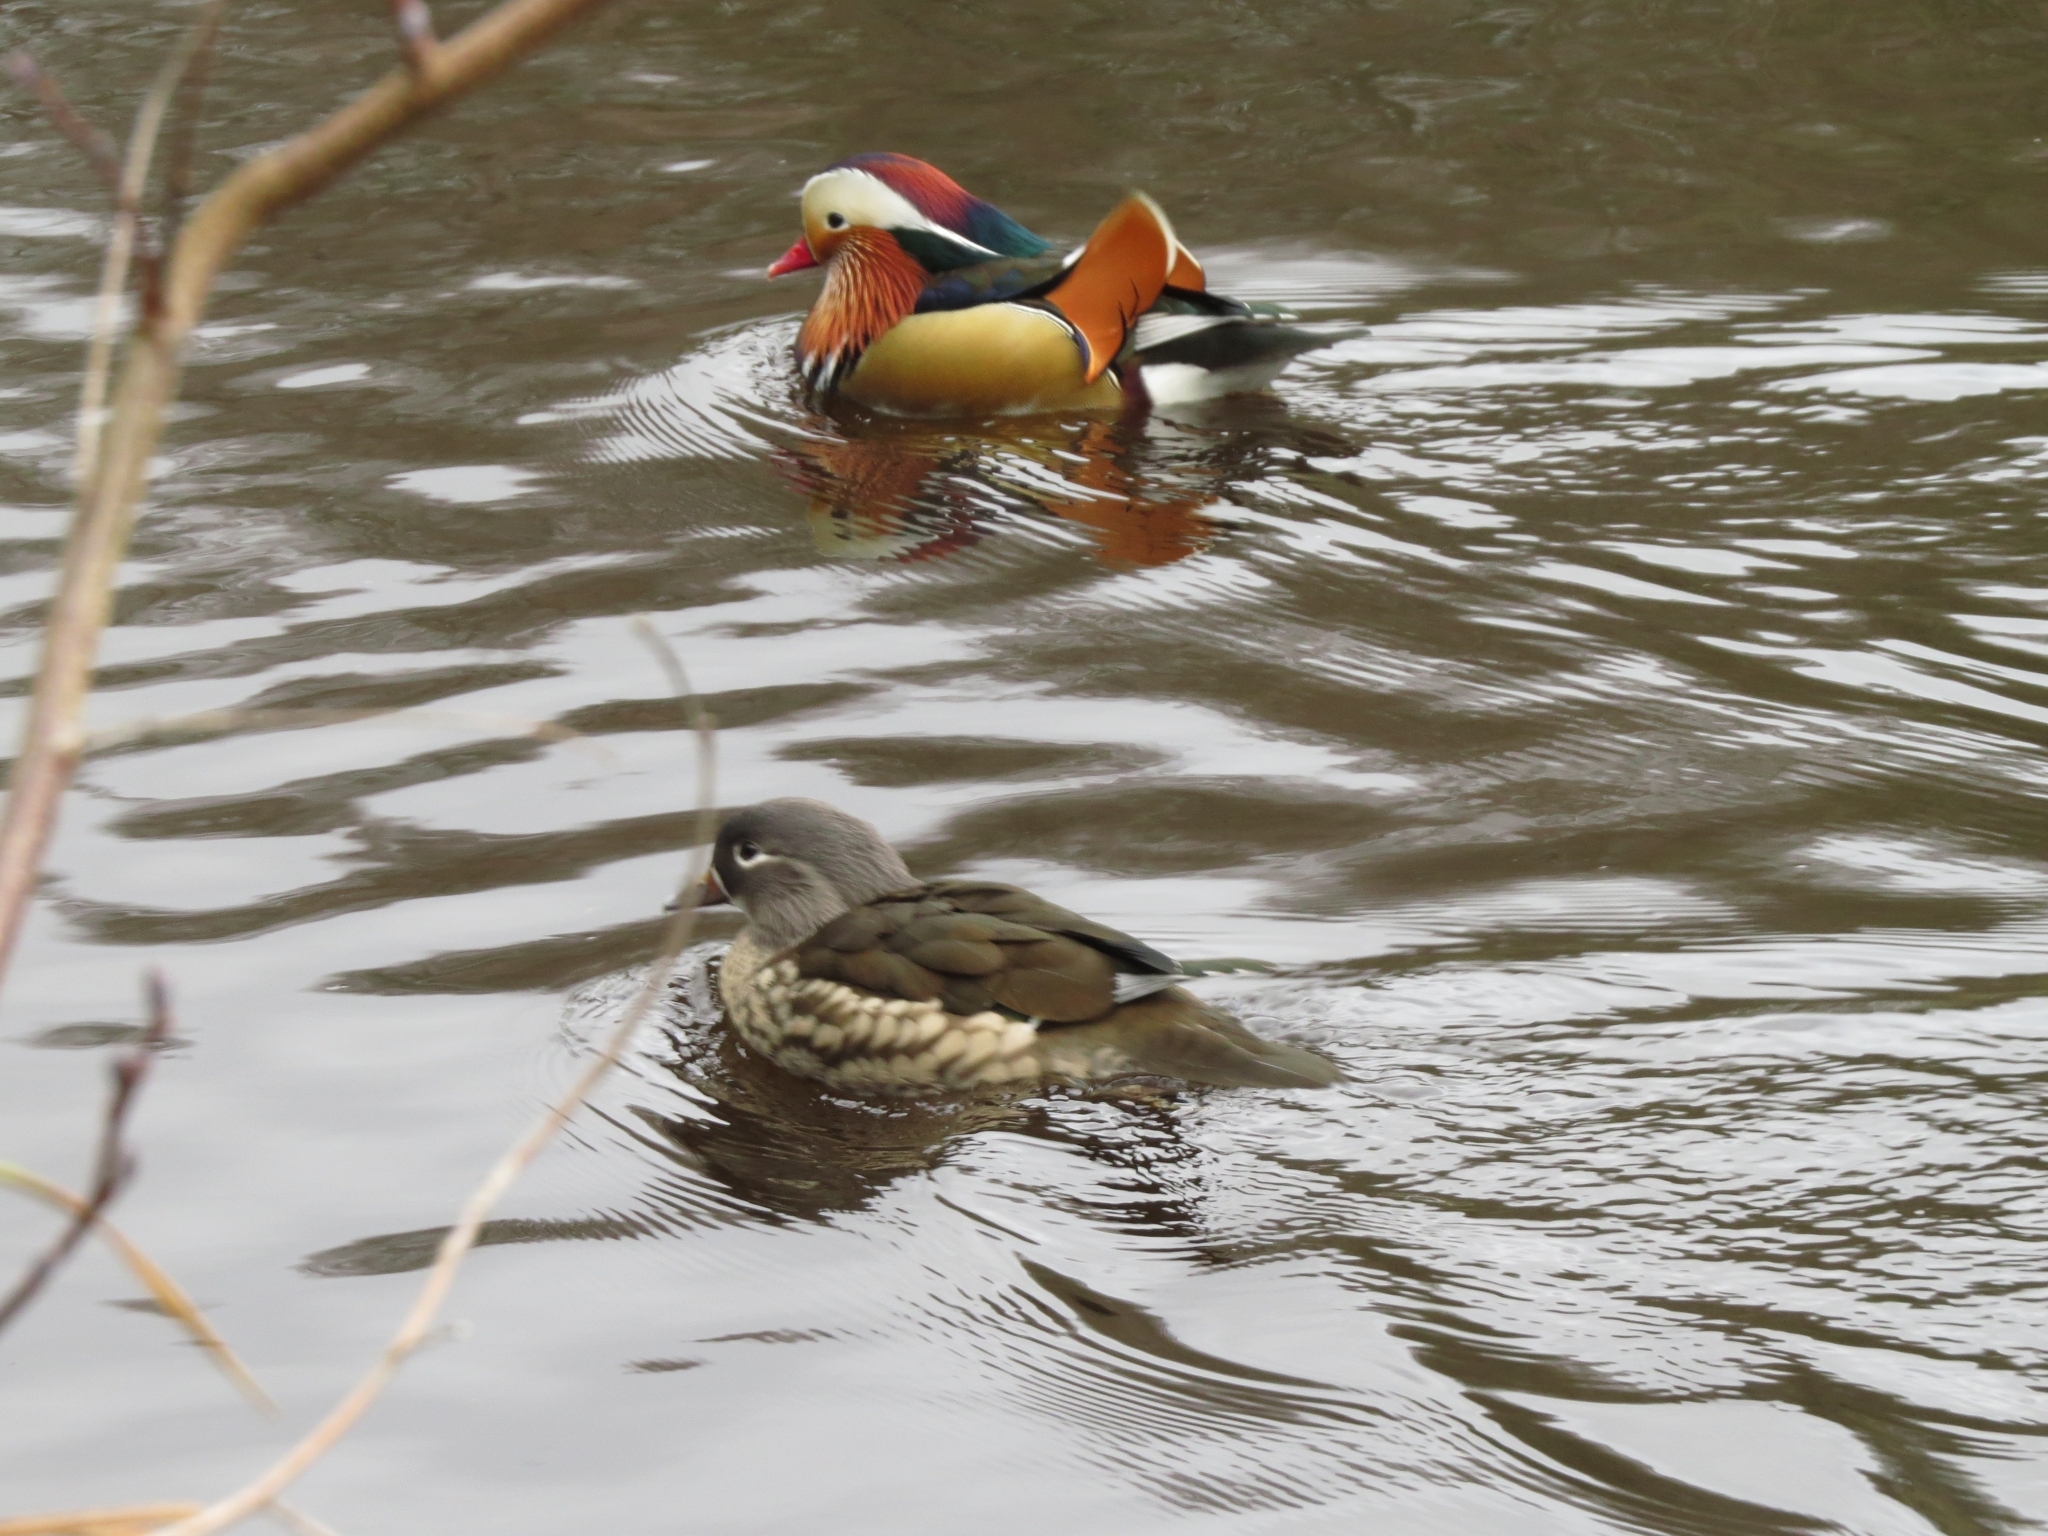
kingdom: Animalia
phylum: Chordata
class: Aves
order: Anseriformes
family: Anatidae
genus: Aix
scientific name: Aix galericulata
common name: Mandarin duck
